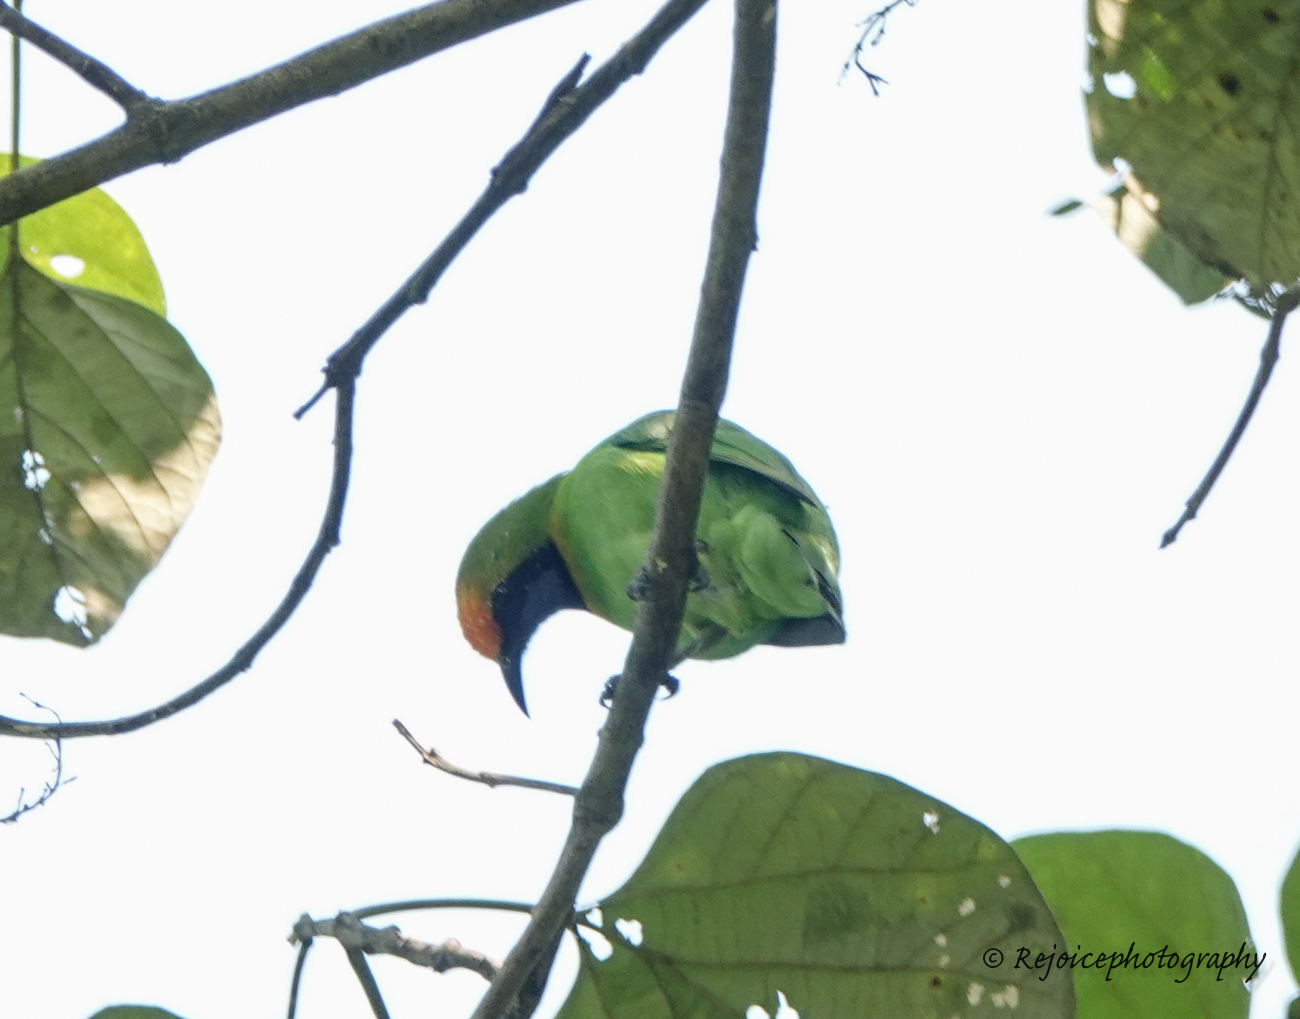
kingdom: Animalia
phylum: Chordata
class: Aves
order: Passeriformes
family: Chloropseidae
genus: Chloropsis
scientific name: Chloropsis aurifrons
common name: Golden-fronted leafbird
